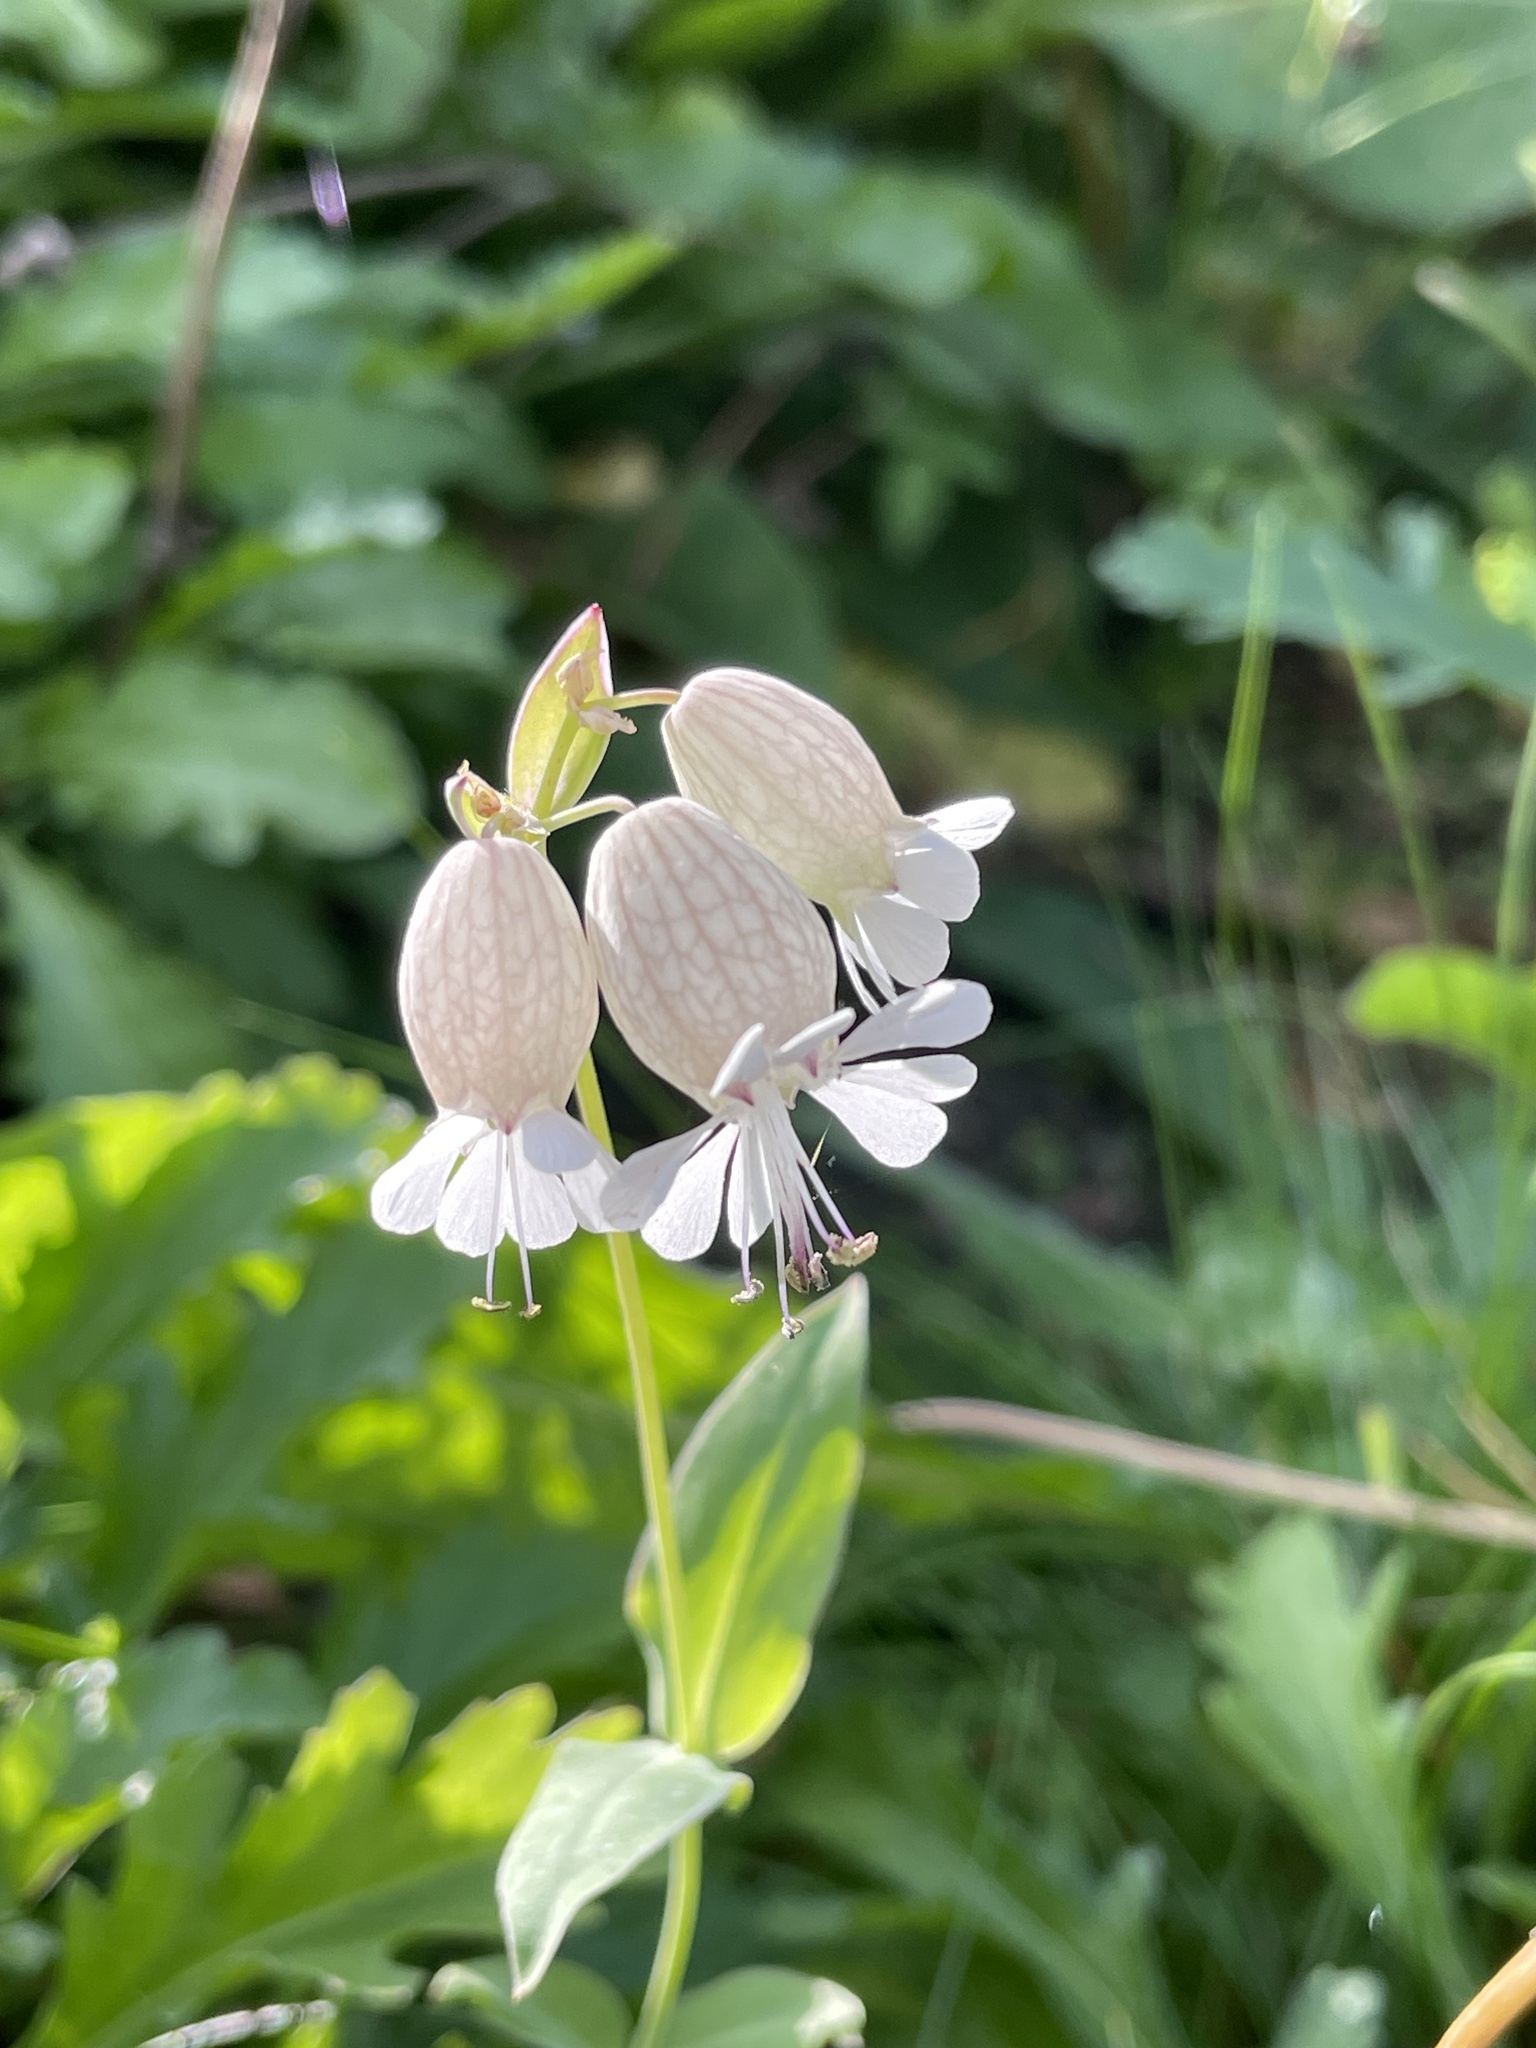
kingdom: Plantae
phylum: Tracheophyta
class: Magnoliopsida
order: Caryophyllales
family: Caryophyllaceae
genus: Silene
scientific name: Silene vulgaris
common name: Bladder campion
